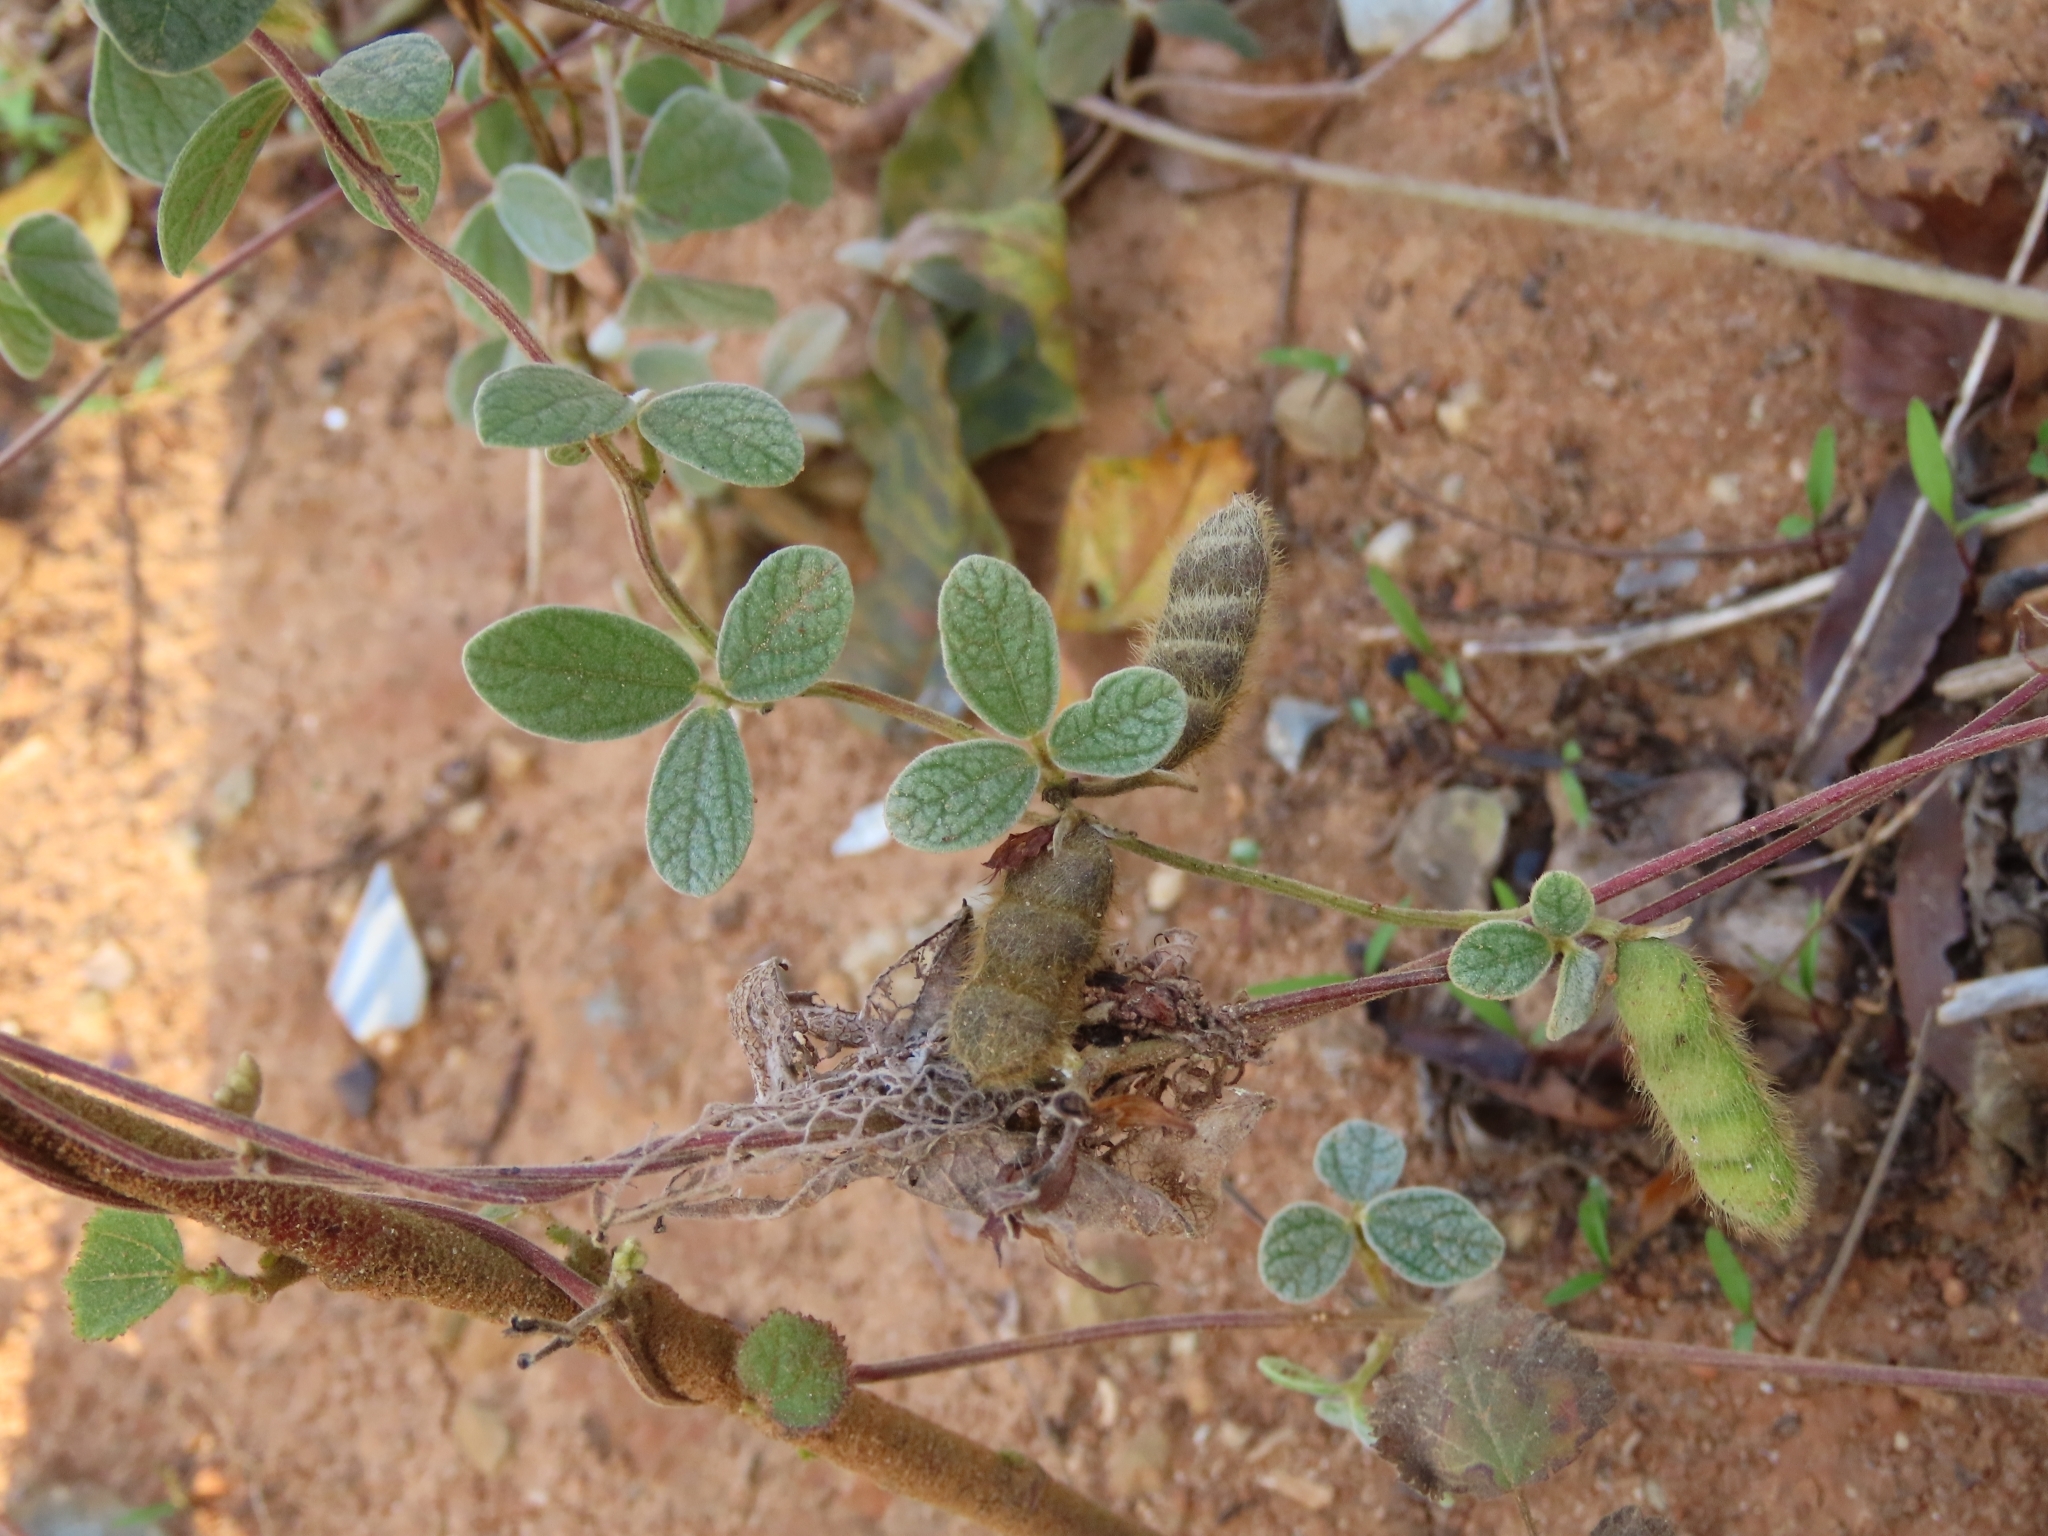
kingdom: Plantae
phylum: Tracheophyta
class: Magnoliopsida
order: Fabales
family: Fabaceae
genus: Cajanus
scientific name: Cajanus scarabaeoides
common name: Showy pigeonpea
